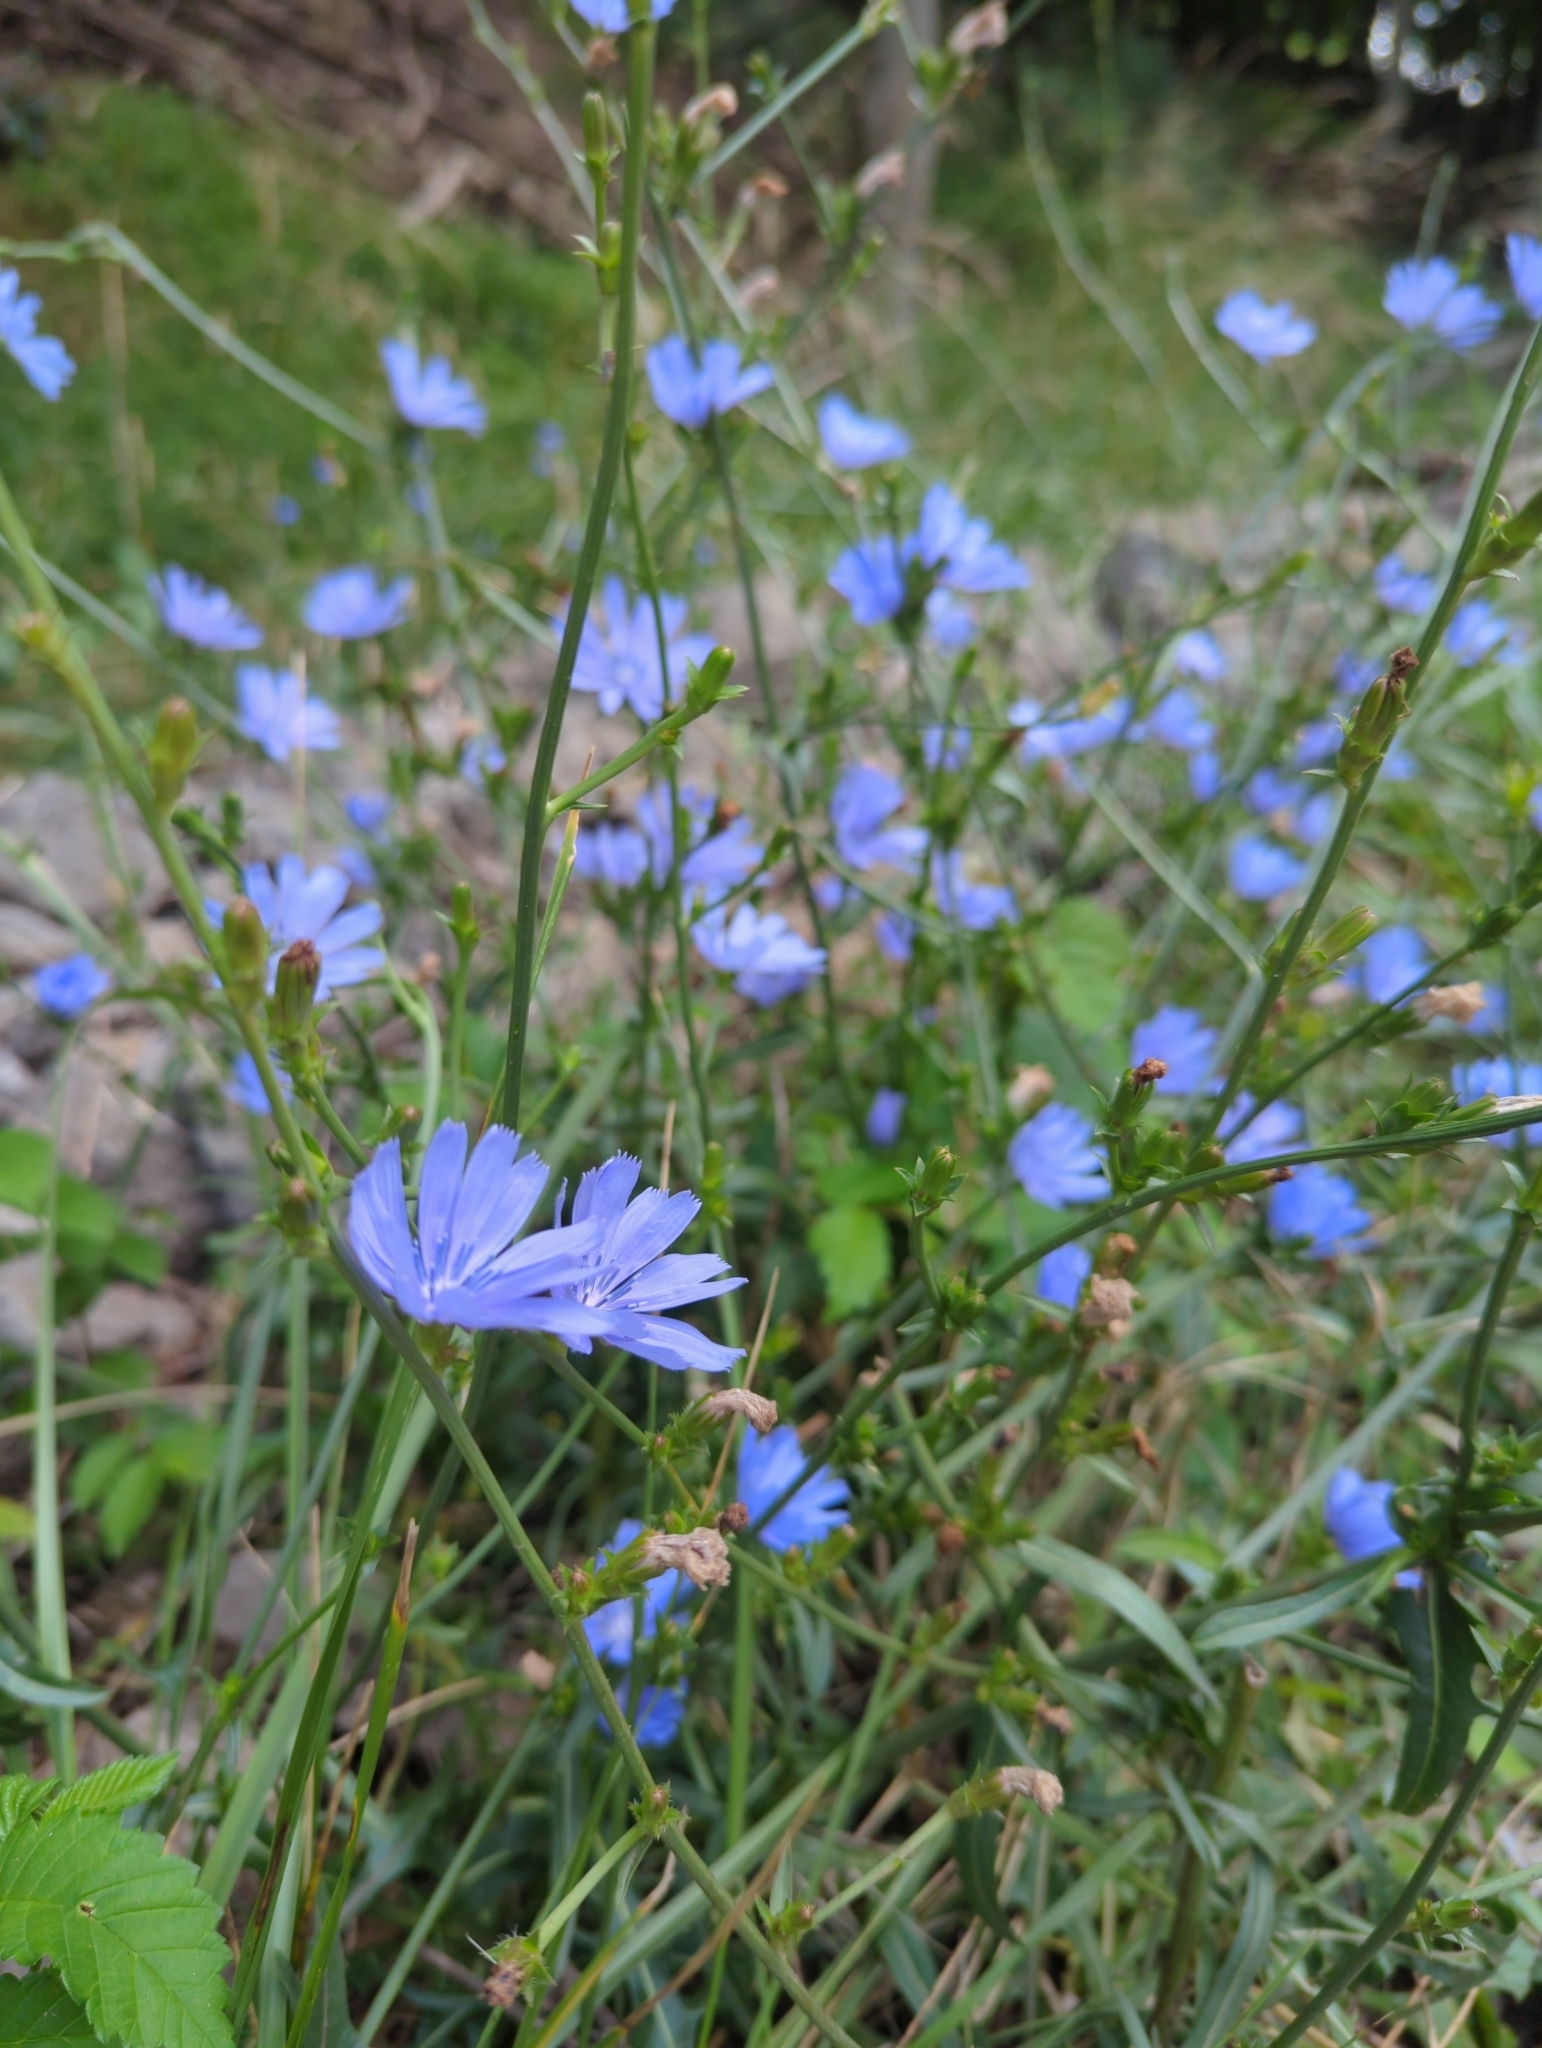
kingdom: Plantae
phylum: Tracheophyta
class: Magnoliopsida
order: Asterales
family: Asteraceae
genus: Cichorium
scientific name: Cichorium intybus
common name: Chicory
